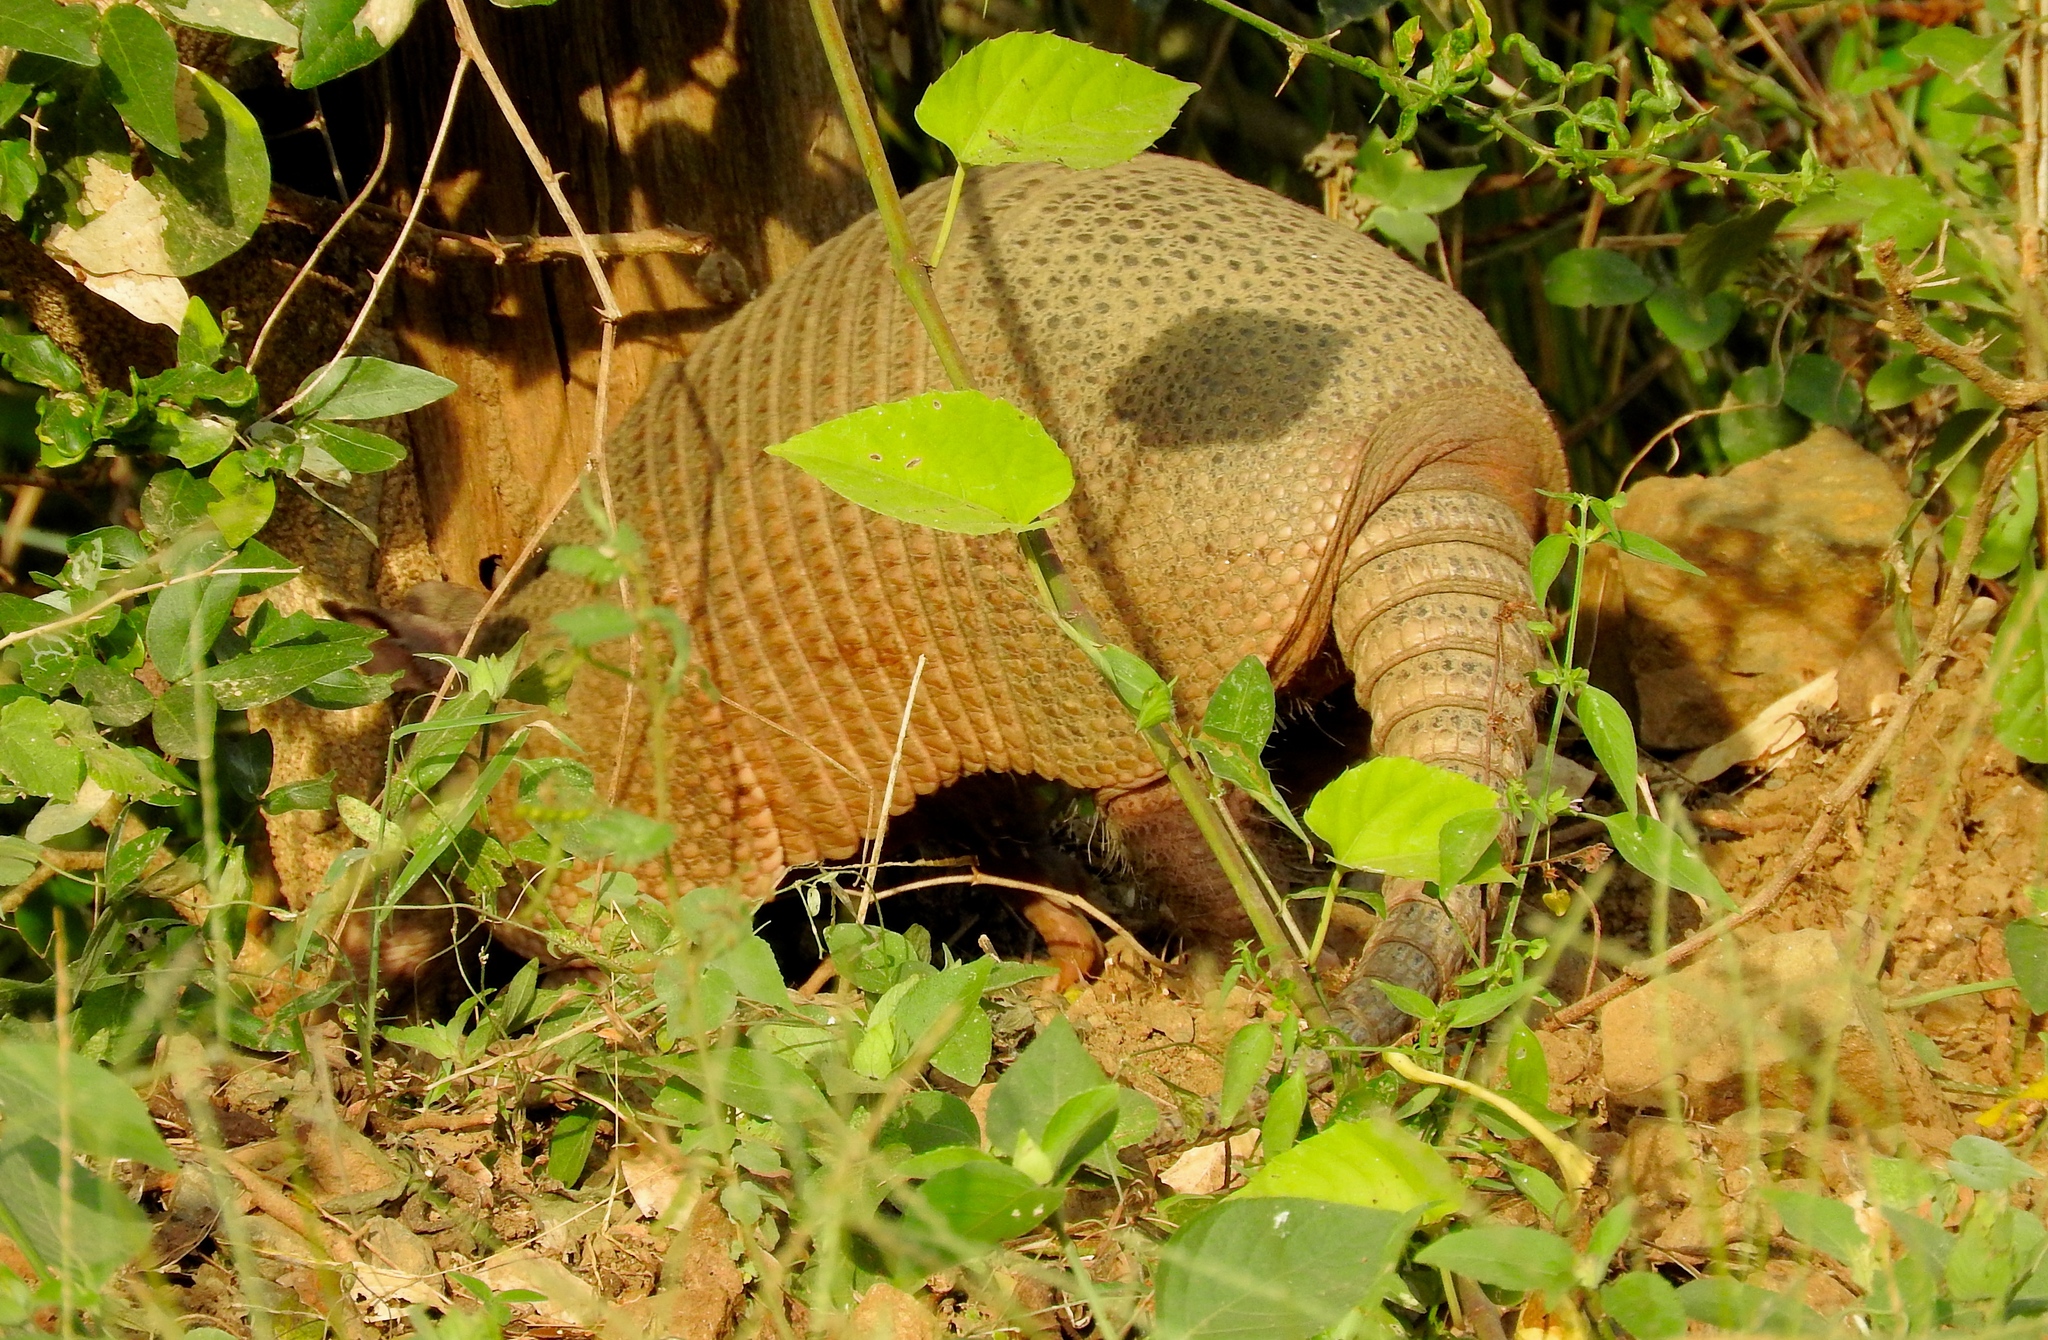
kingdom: Animalia
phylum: Chordata
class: Mammalia
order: Cingulata
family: Dasypodidae
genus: Dasypus
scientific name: Dasypus novemcinctus
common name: Nine-banded armadillo
